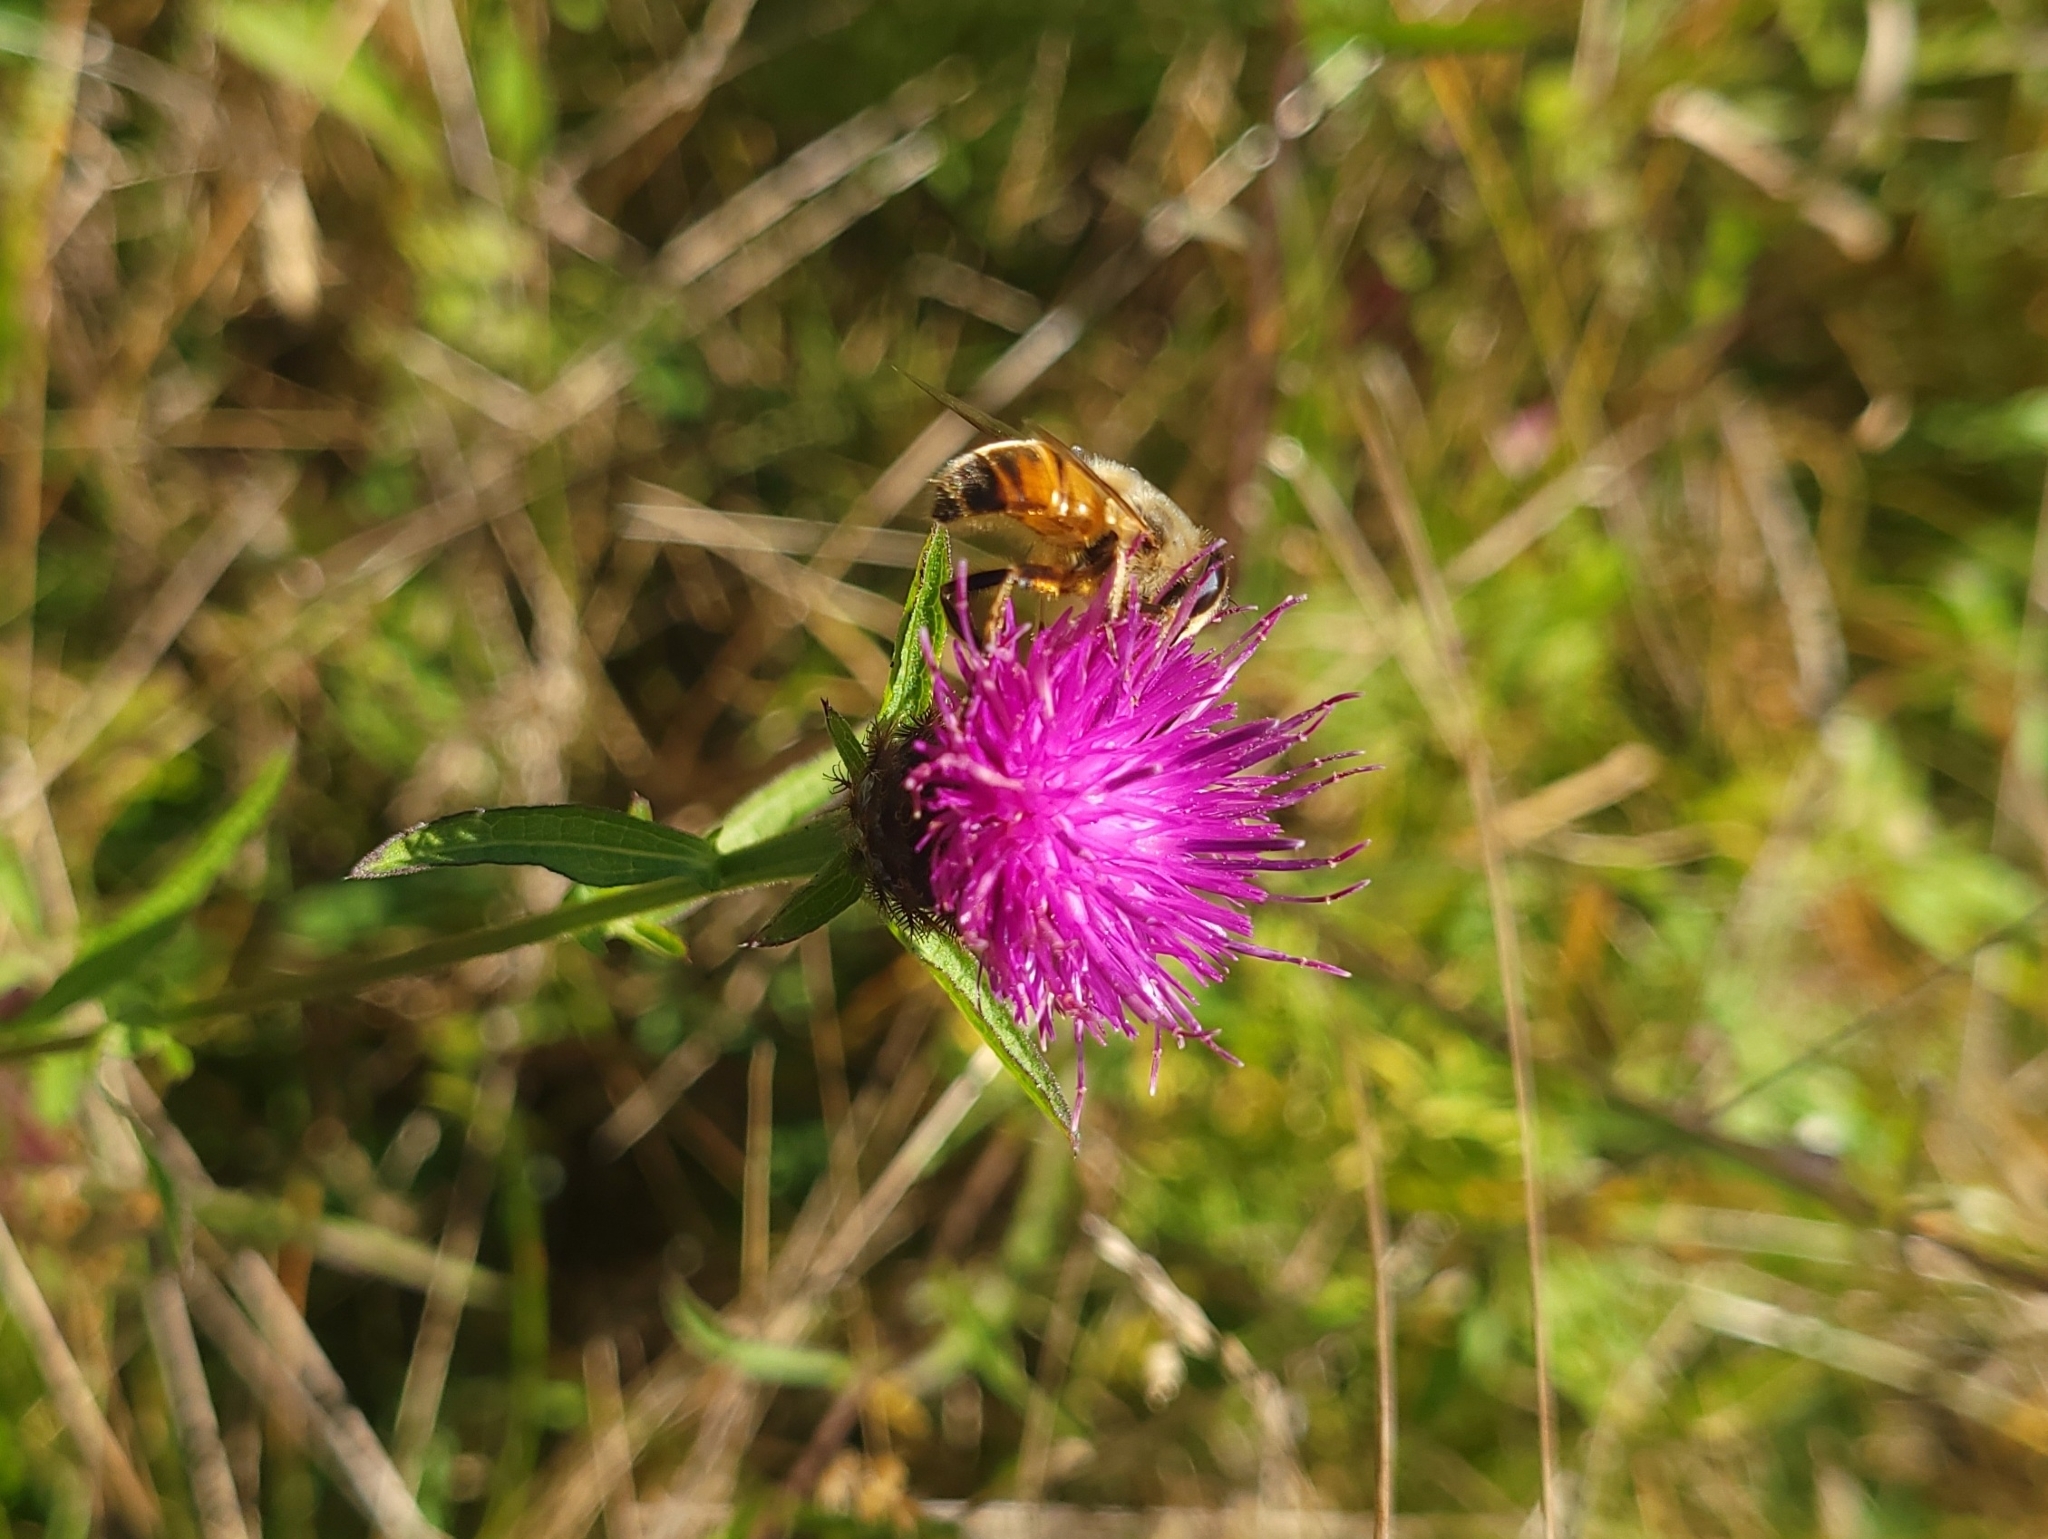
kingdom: Plantae
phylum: Tracheophyta
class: Magnoliopsida
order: Asterales
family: Asteraceae
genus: Centaurea
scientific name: Centaurea nigra
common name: Lesser knapweed
